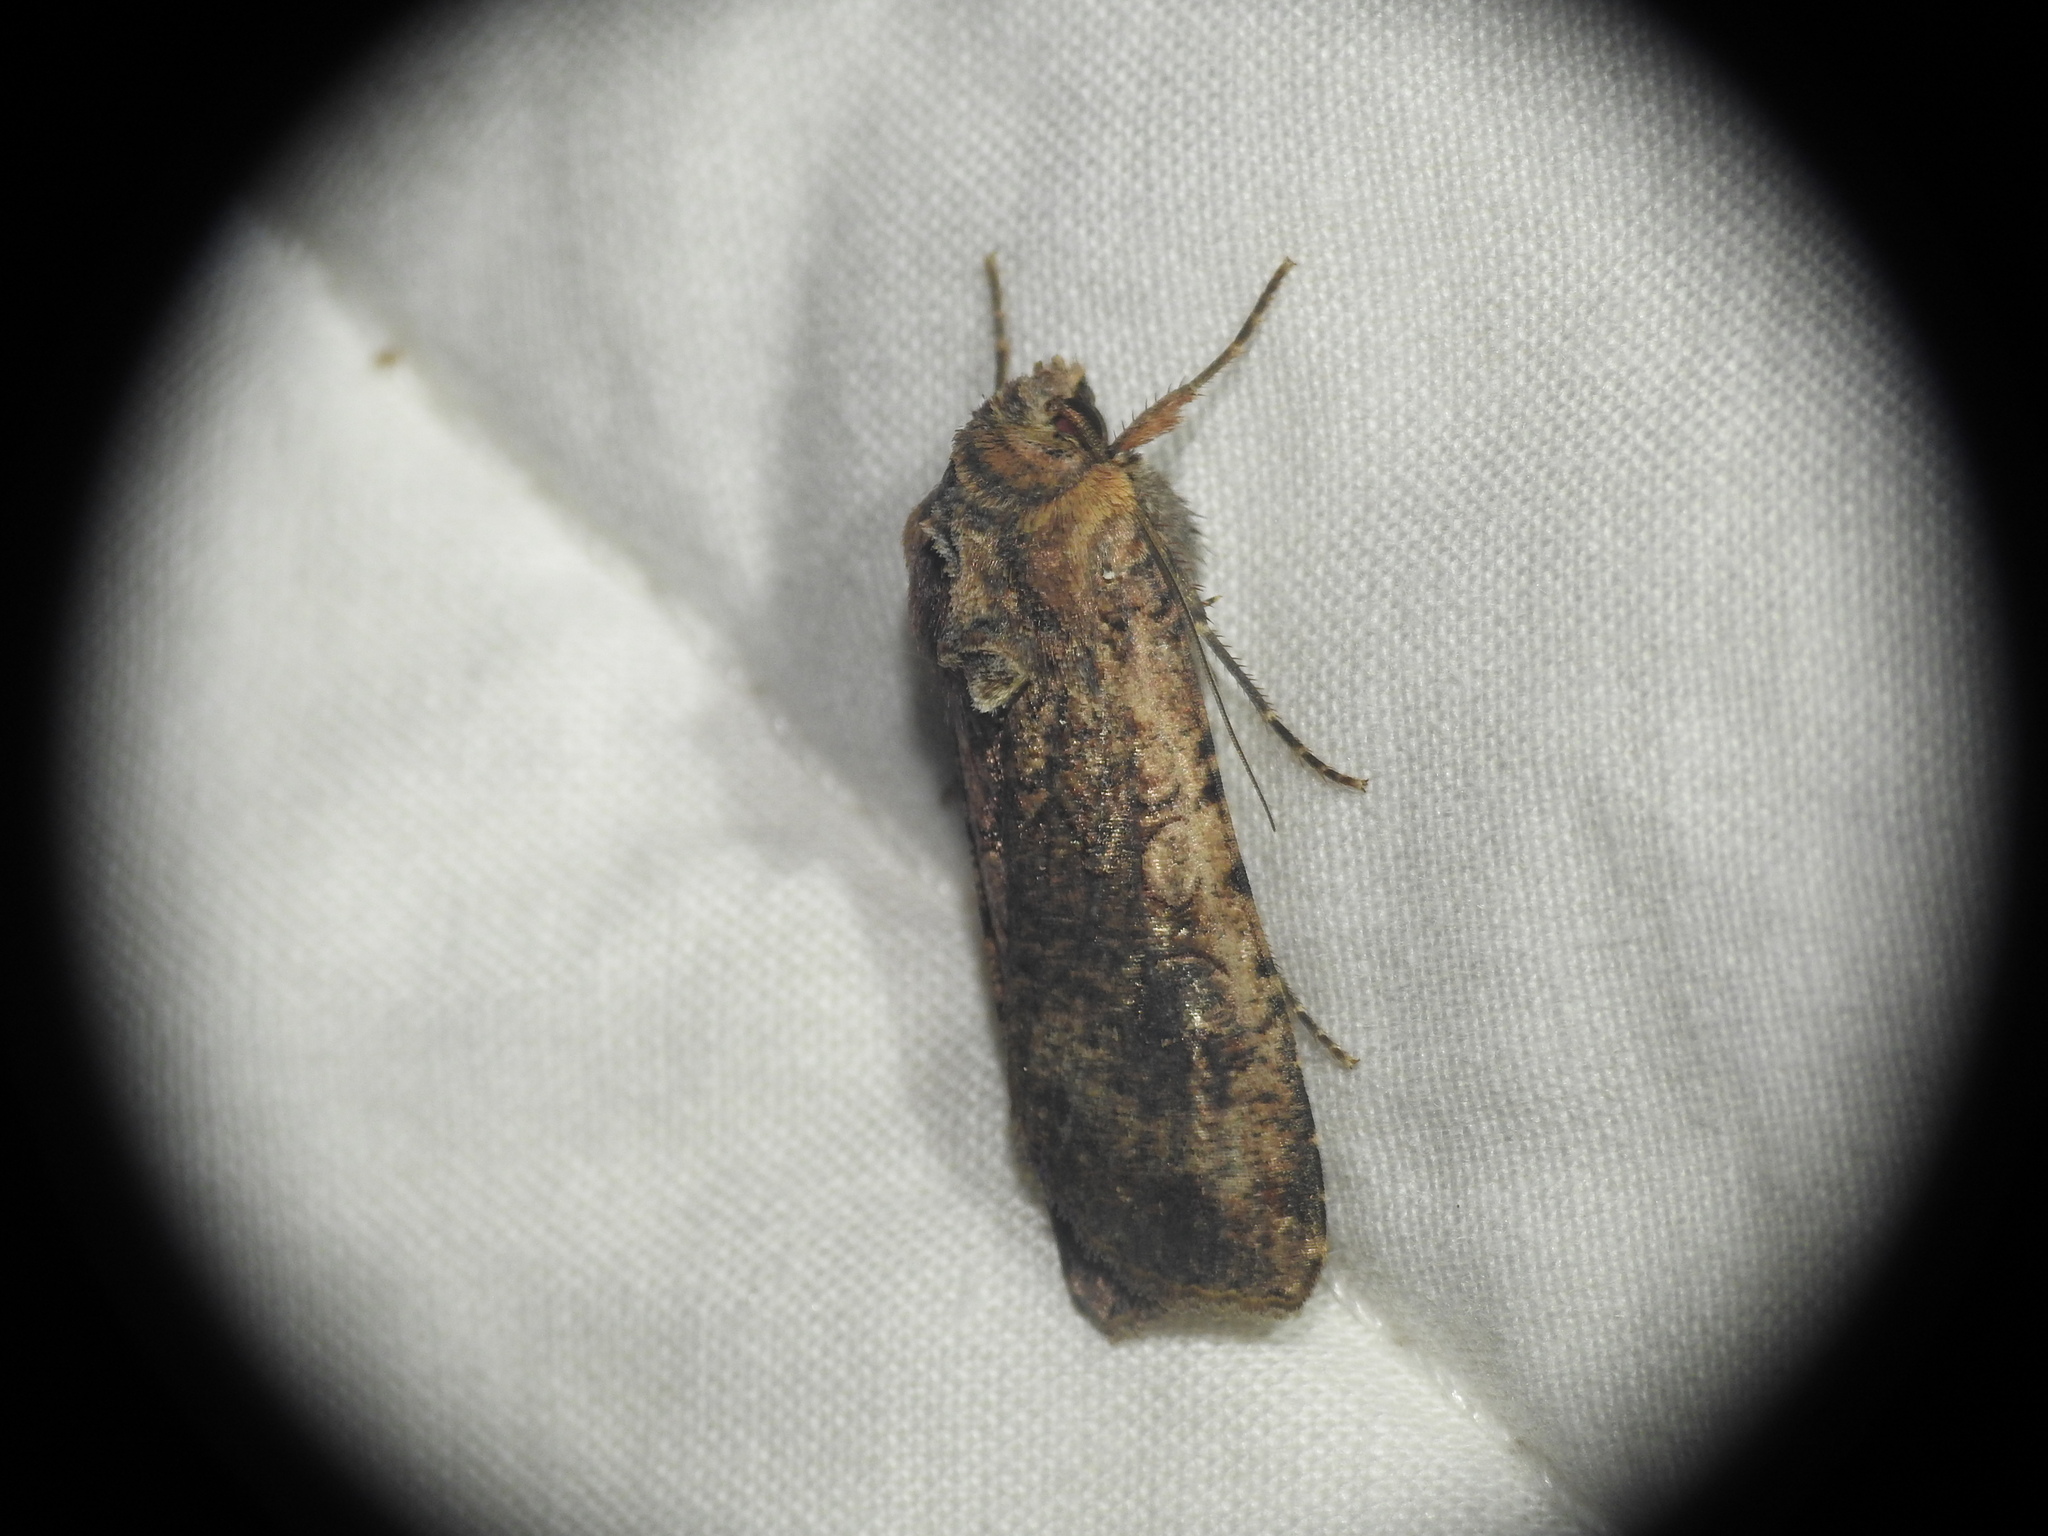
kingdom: Animalia
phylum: Arthropoda
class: Insecta
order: Lepidoptera
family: Noctuidae
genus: Peridroma
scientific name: Peridroma saucia
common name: Pearly underwing
